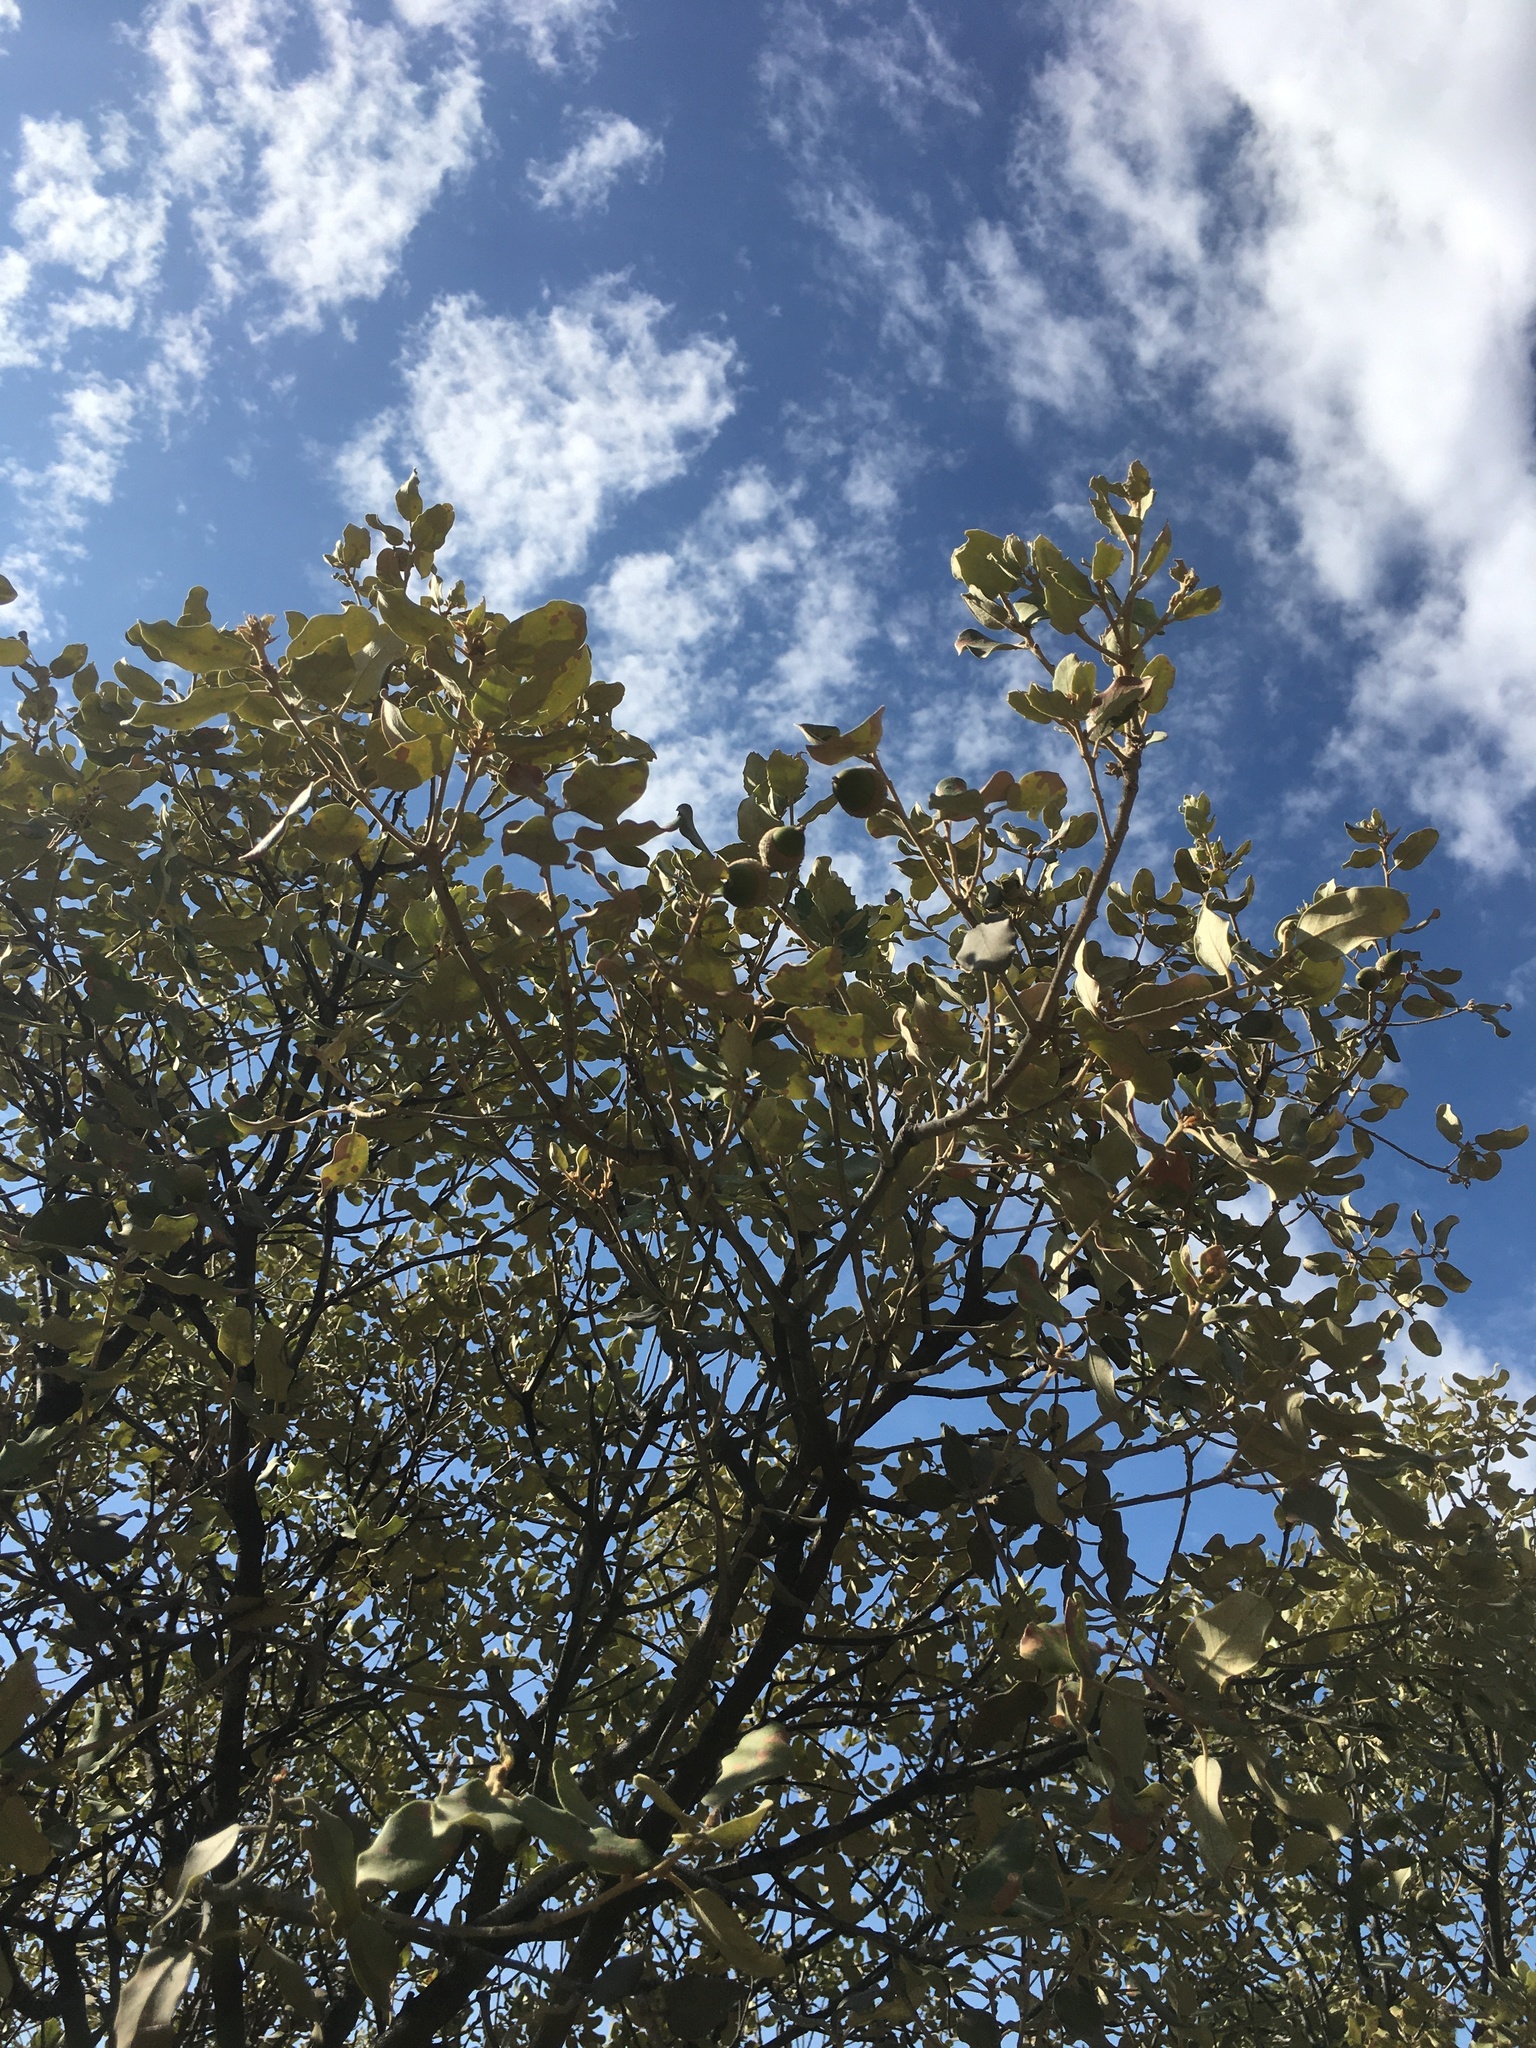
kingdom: Plantae
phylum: Tracheophyta
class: Magnoliopsida
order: Fagales
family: Fagaceae
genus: Quercus
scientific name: Quercus rotundifolia
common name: Holm oak
